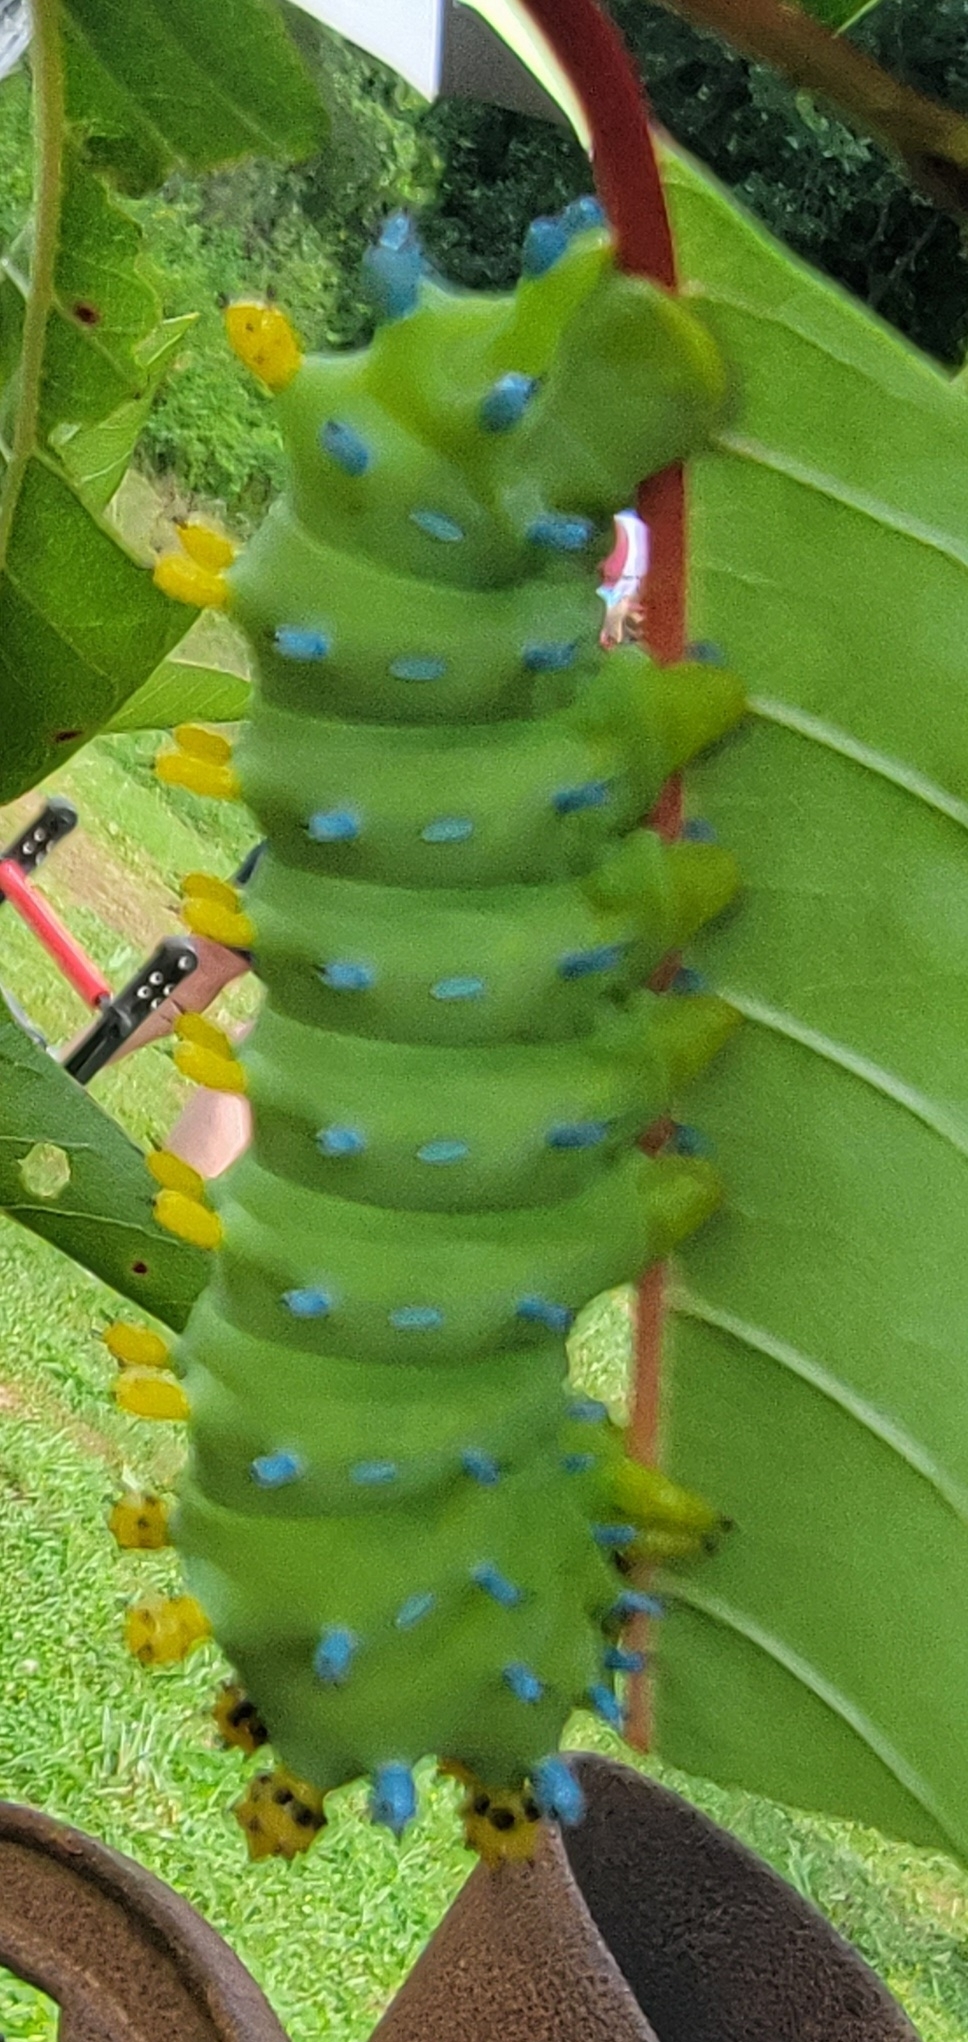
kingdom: Animalia
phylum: Arthropoda
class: Insecta
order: Lepidoptera
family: Saturniidae
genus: Hyalophora
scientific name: Hyalophora cecropia
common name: Cecropia silkmoth
